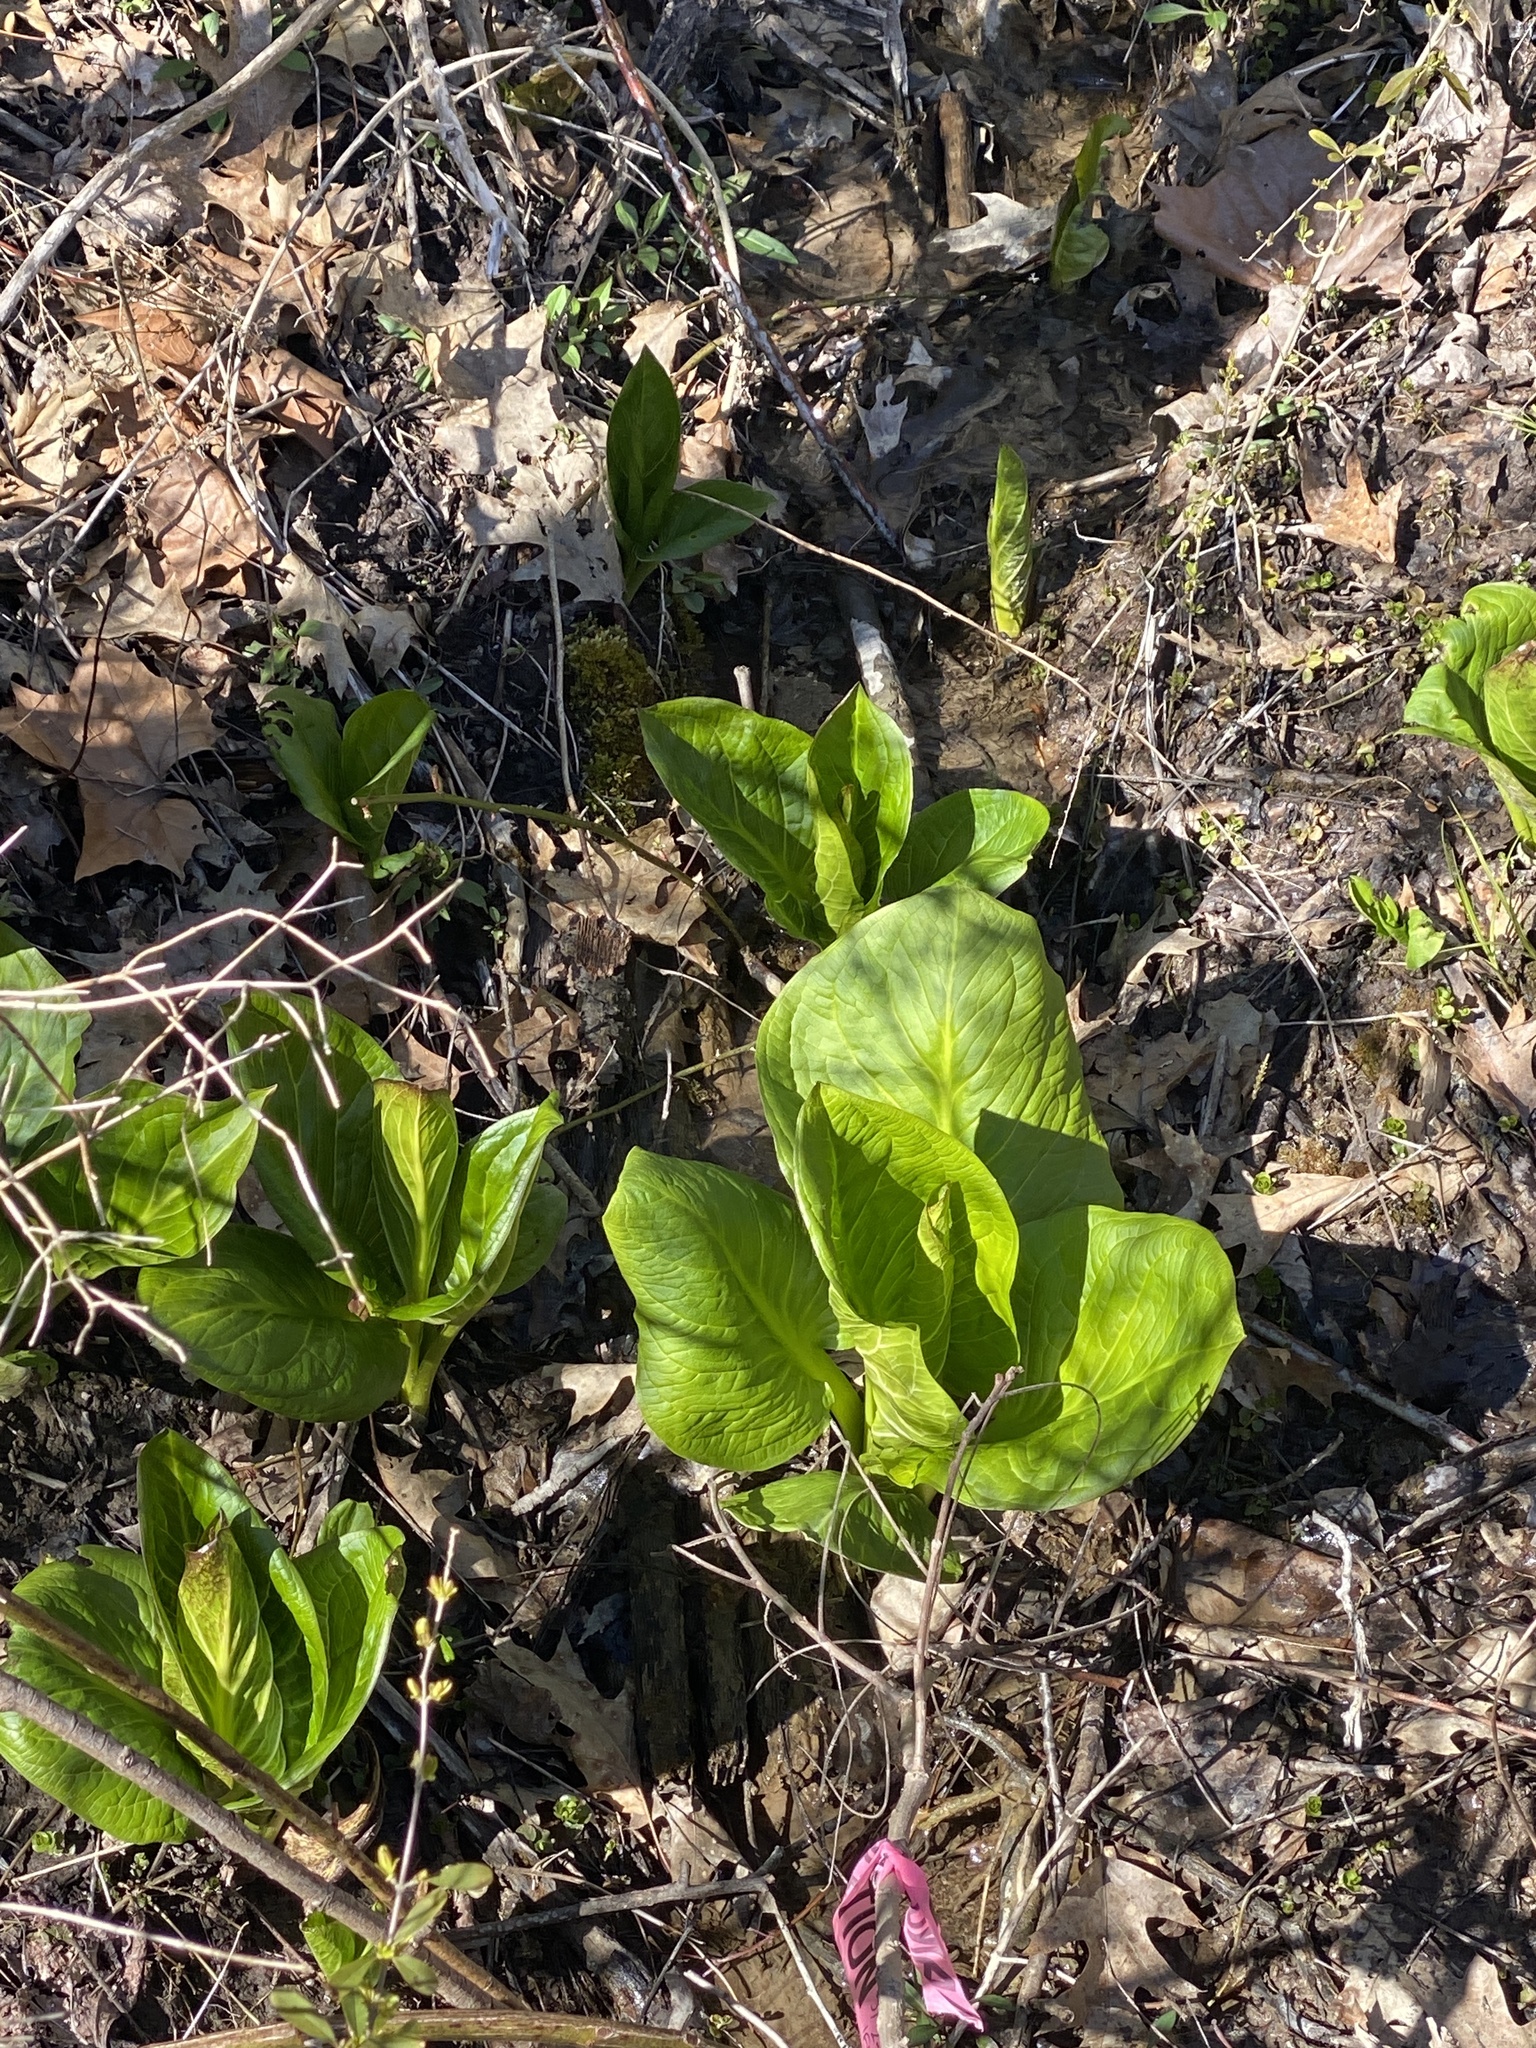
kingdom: Plantae
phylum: Tracheophyta
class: Liliopsida
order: Alismatales
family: Araceae
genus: Symplocarpus
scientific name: Symplocarpus foetidus
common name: Eastern skunk cabbage
